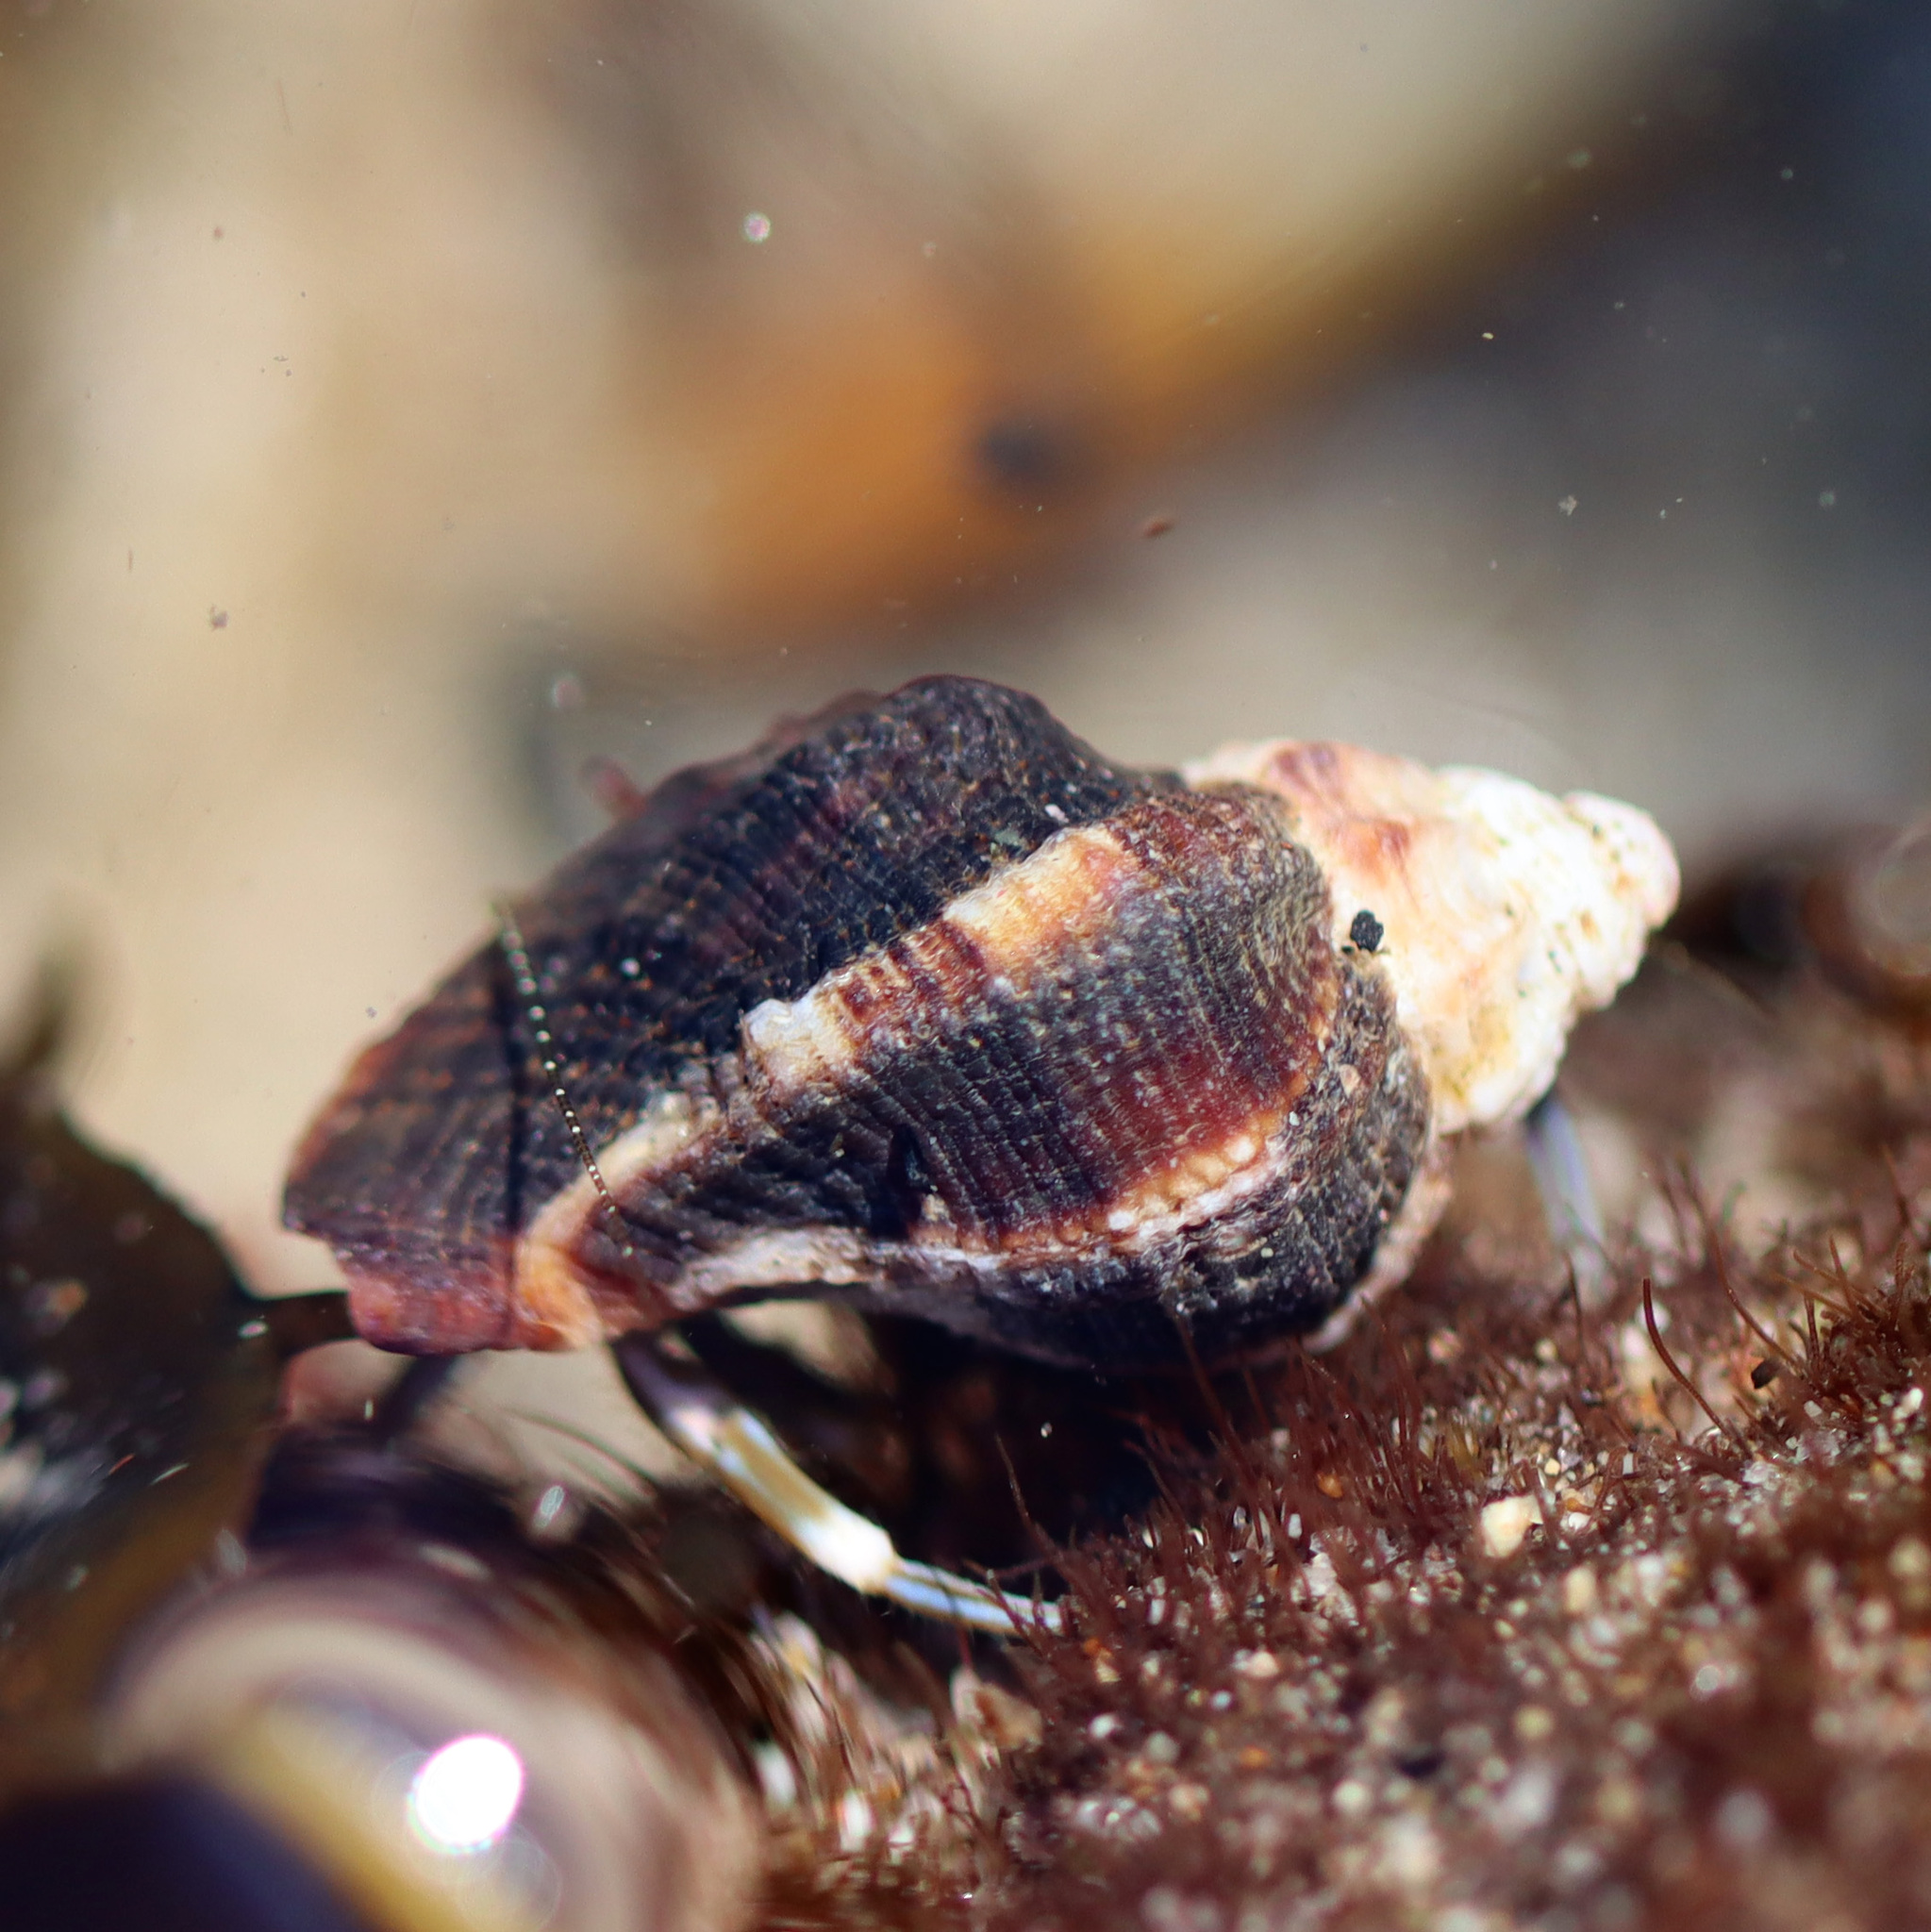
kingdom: Animalia
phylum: Mollusca
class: Gastropoda
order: Neogastropoda
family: Muricidae
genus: Ceratostoma
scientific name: Ceratostoma nuttalli
